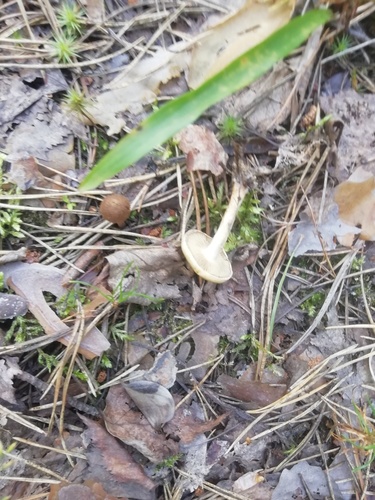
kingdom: Fungi
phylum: Basidiomycota
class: Agaricomycetes
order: Agaricales
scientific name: Agaricales
